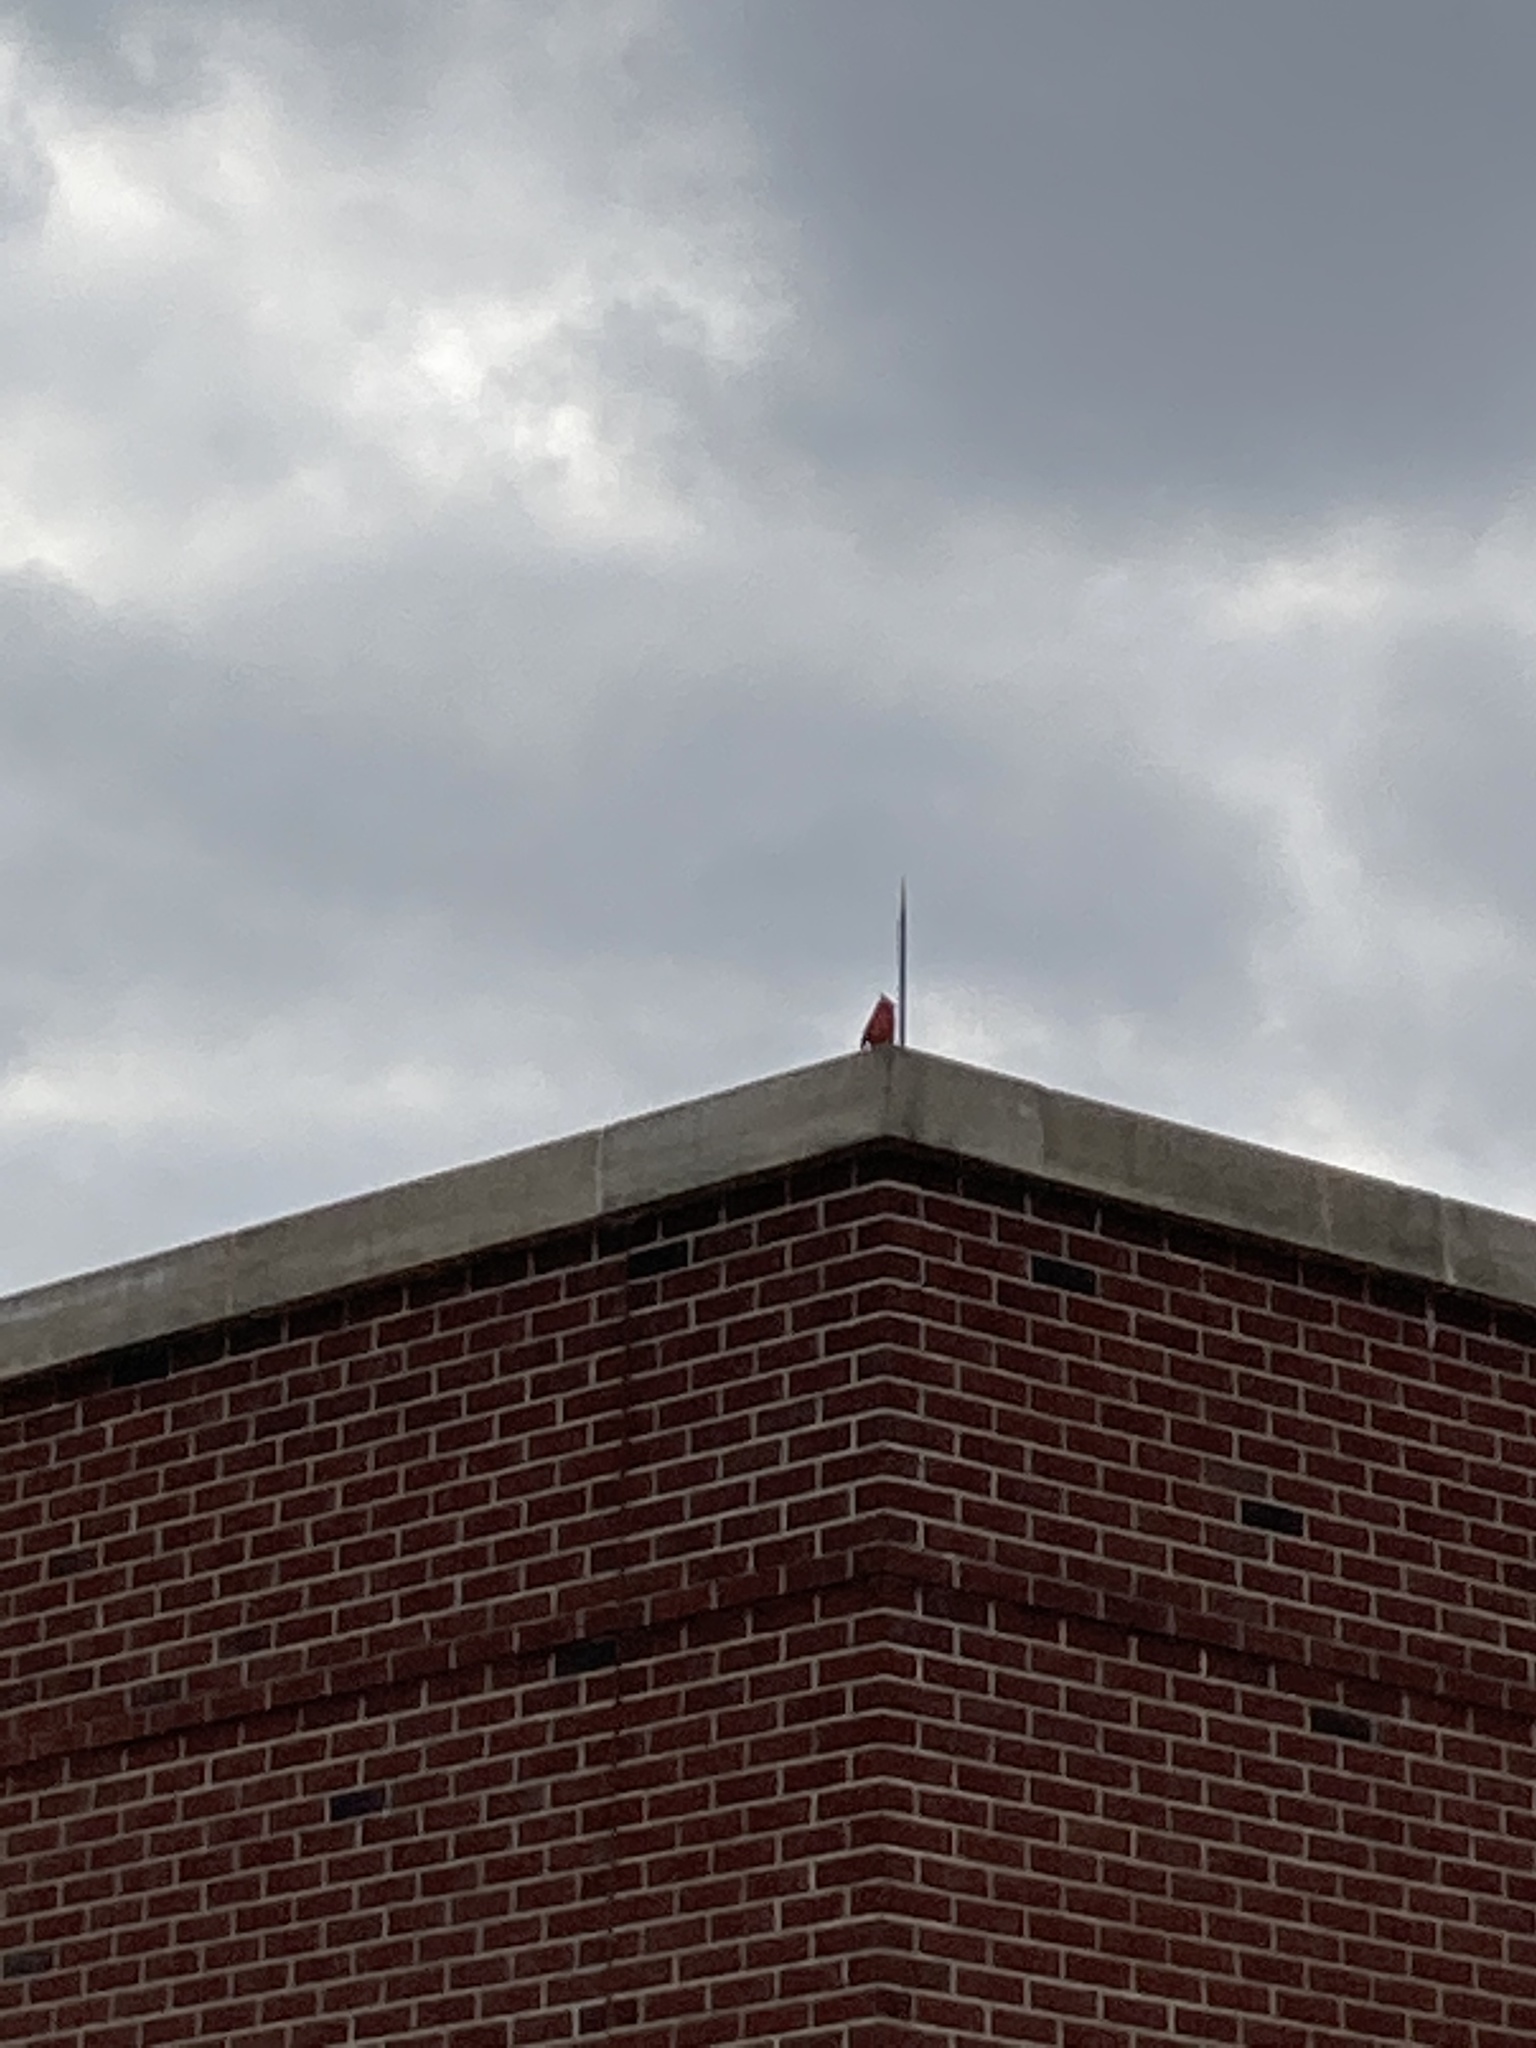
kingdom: Animalia
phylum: Chordata
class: Aves
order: Passeriformes
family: Cardinalidae
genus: Cardinalis
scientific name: Cardinalis cardinalis
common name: Northern cardinal
